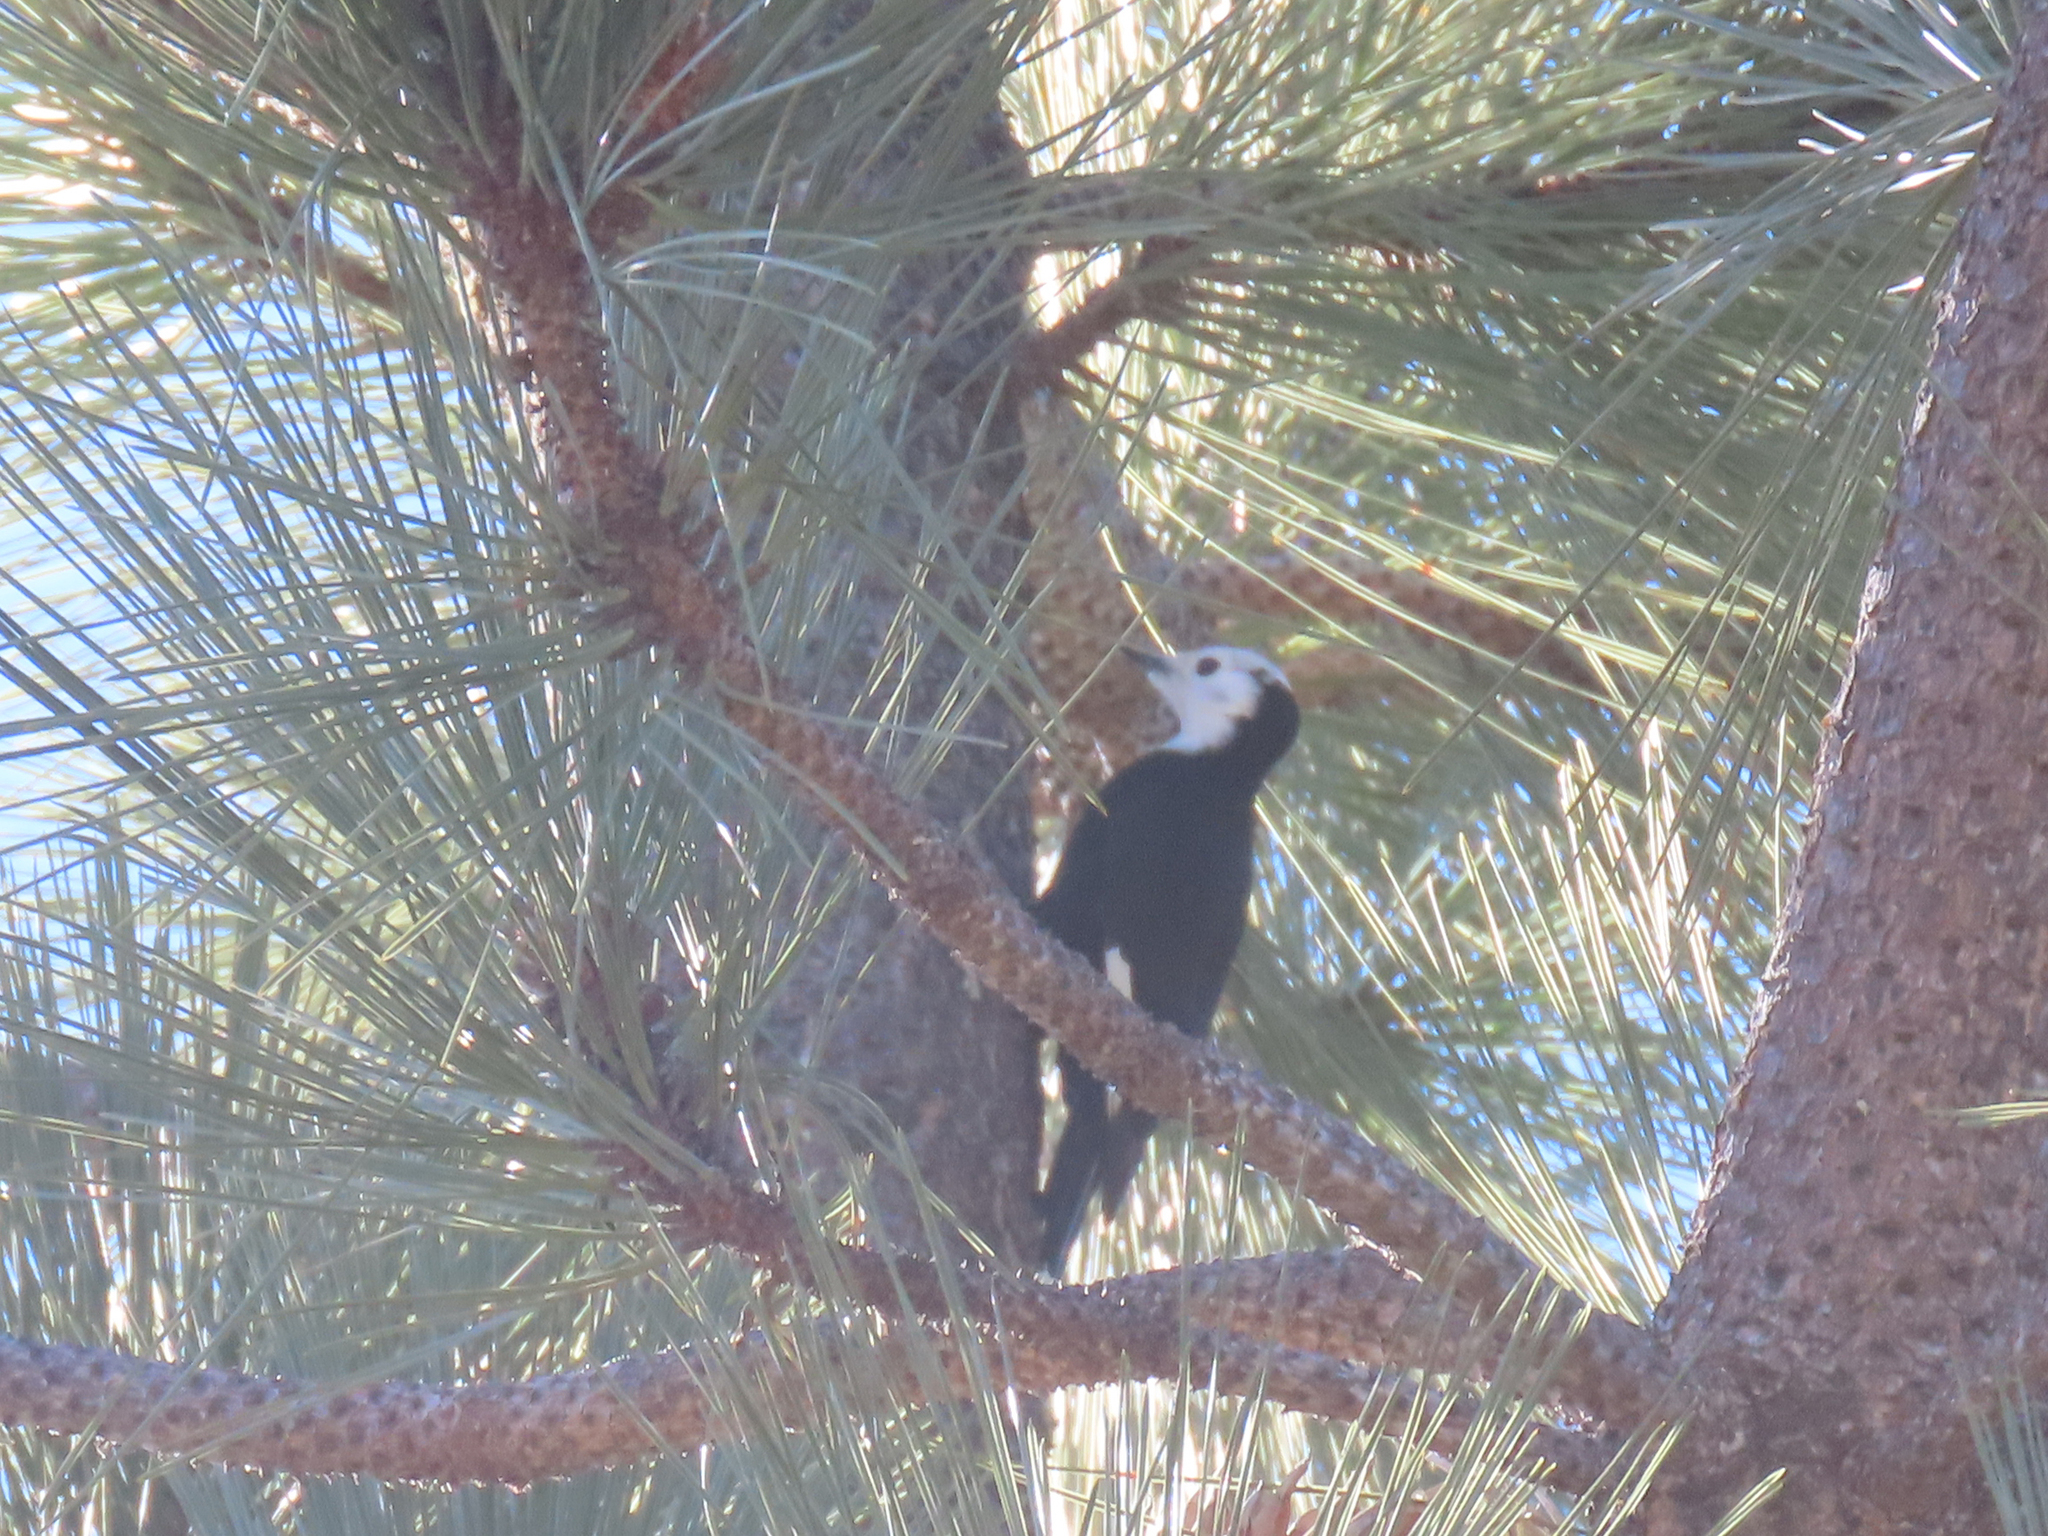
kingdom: Animalia
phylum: Chordata
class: Aves
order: Piciformes
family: Picidae
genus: Leuconotopicus
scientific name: Leuconotopicus albolarvatus
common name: White-headed woodpecker
